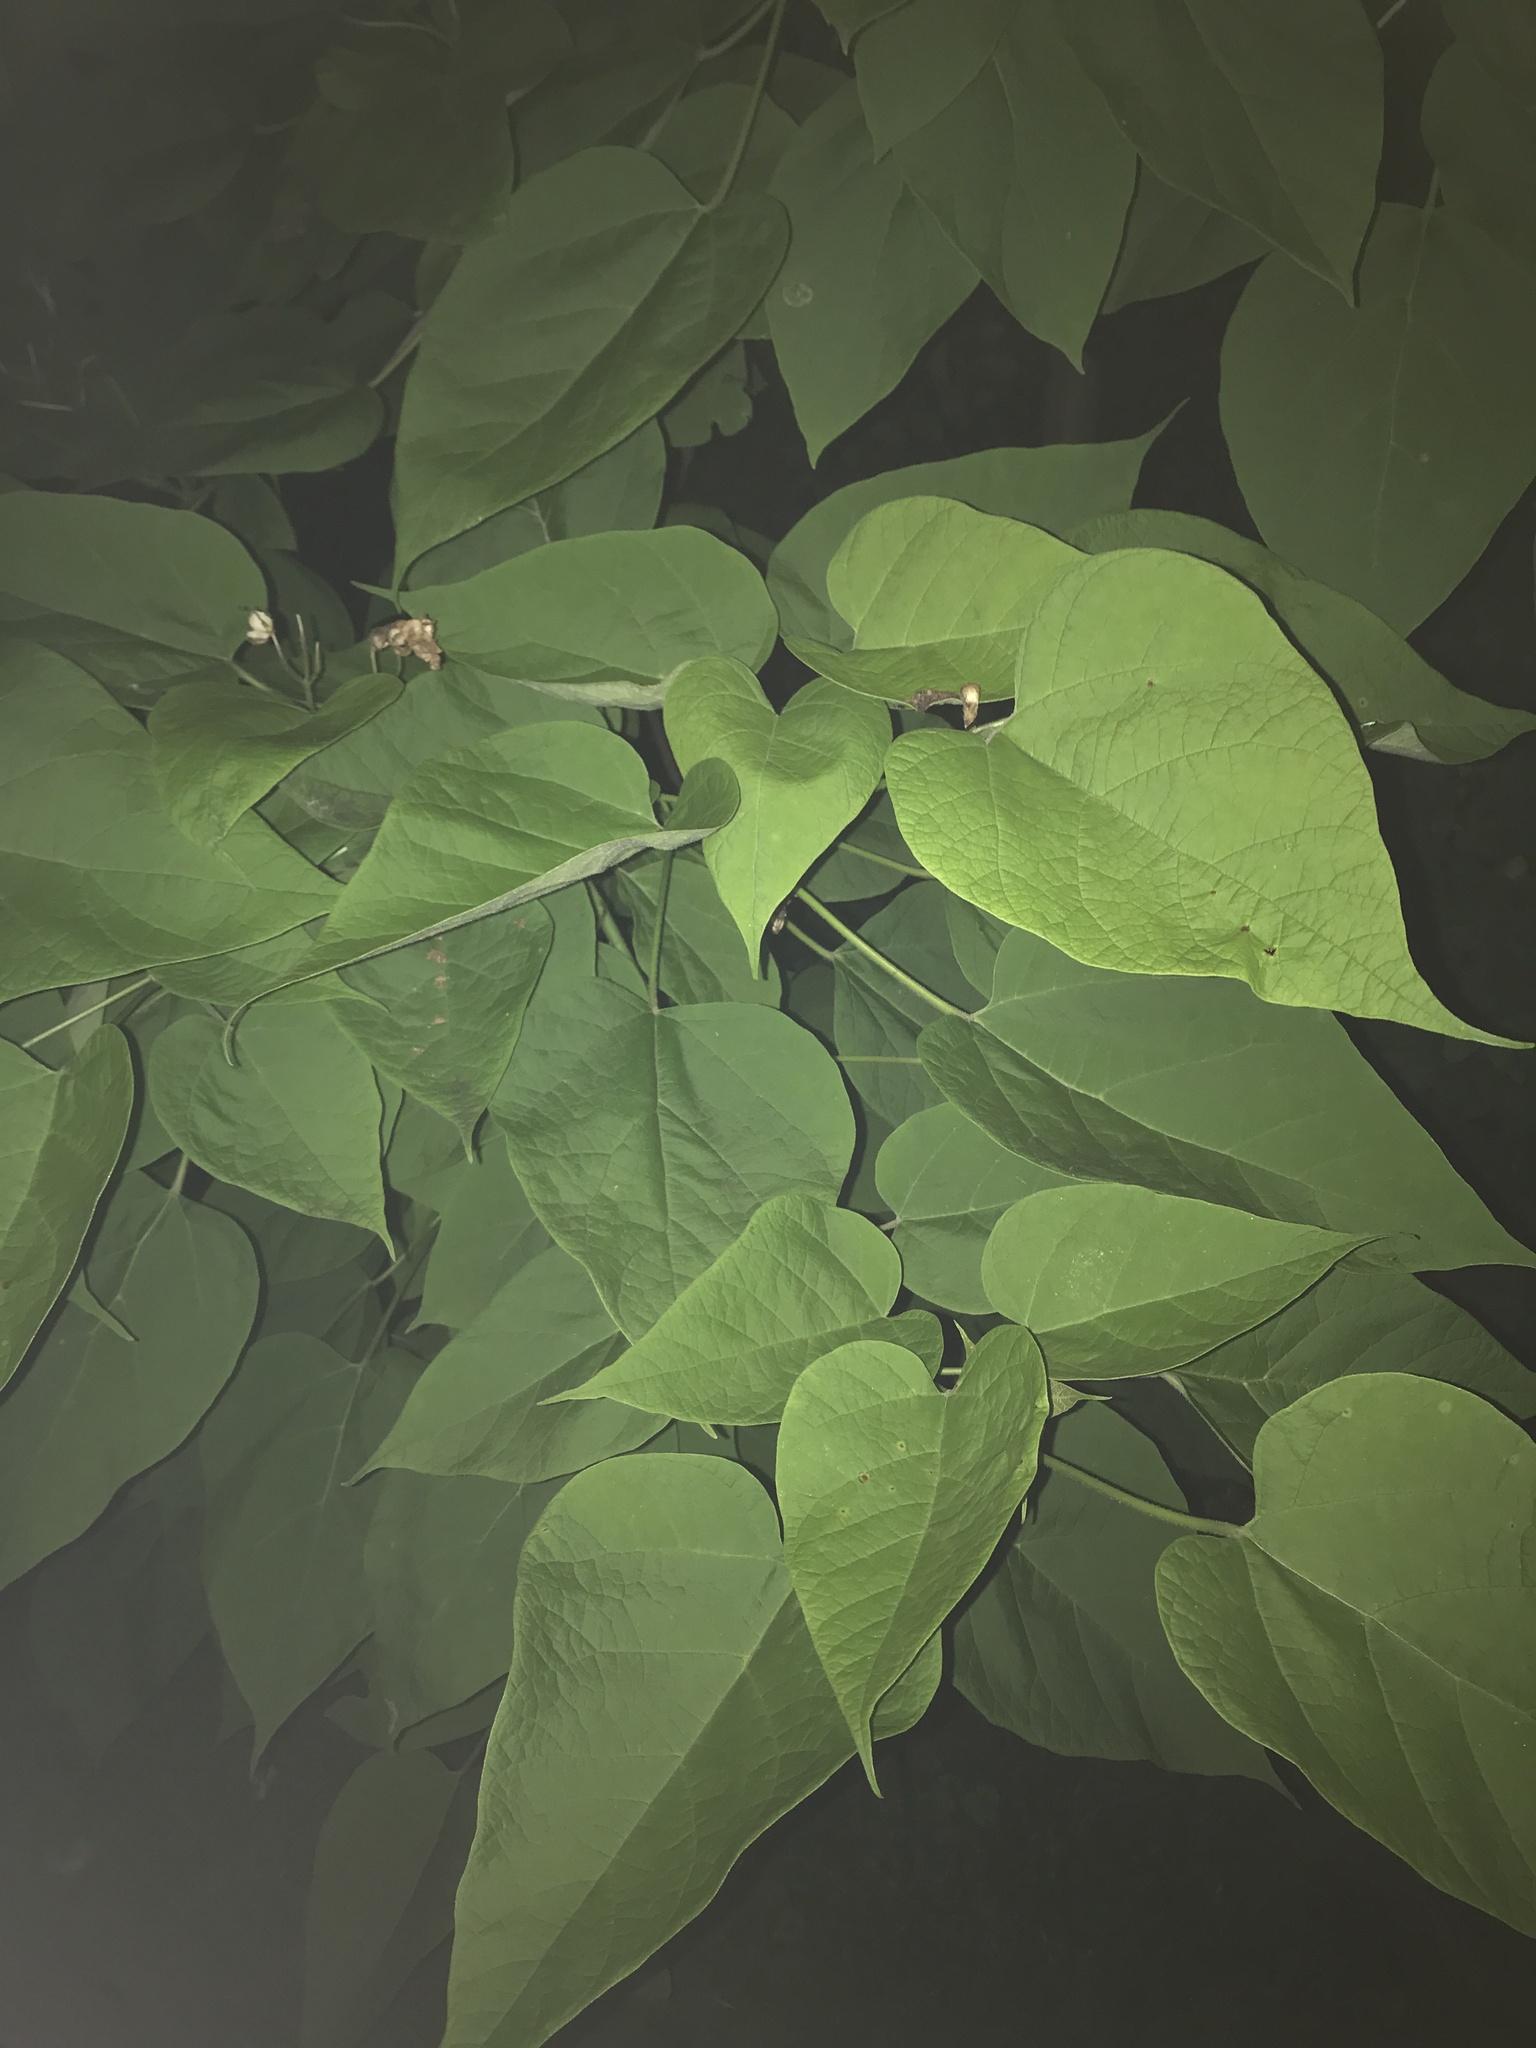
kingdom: Plantae
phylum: Tracheophyta
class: Magnoliopsida
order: Lamiales
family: Bignoniaceae
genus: Catalpa
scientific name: Catalpa speciosa
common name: Northern catalpa
